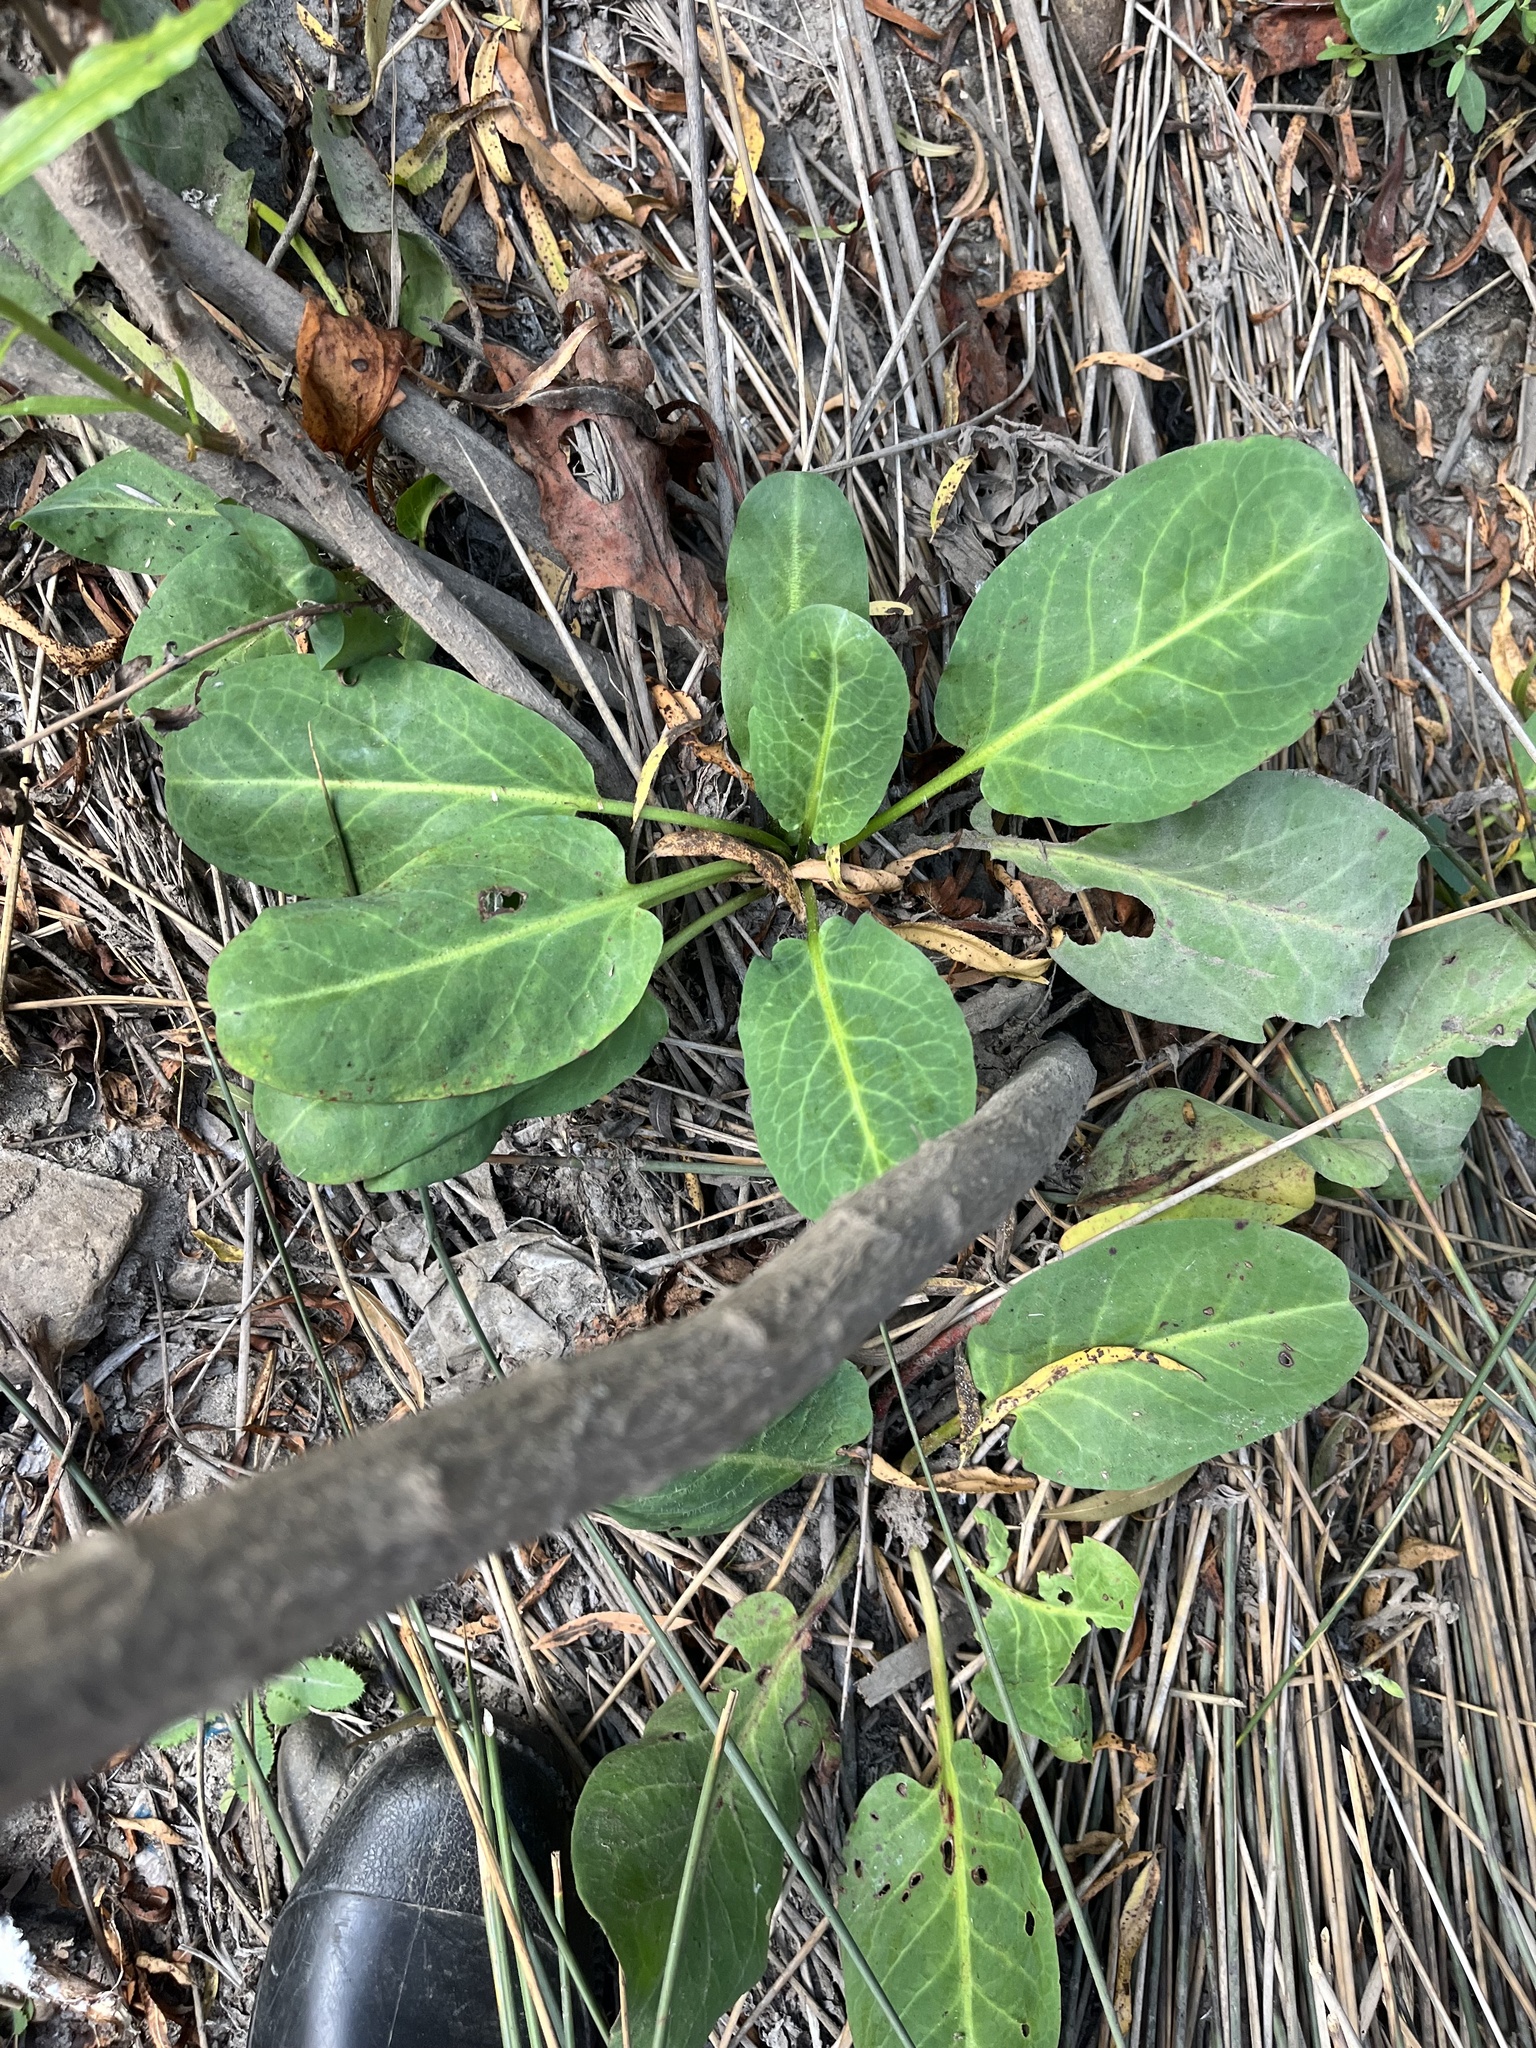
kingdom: Plantae
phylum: Tracheophyta
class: Magnoliopsida
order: Piperales
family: Saururaceae
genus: Anemopsis
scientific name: Anemopsis californica
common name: Apache-beads
